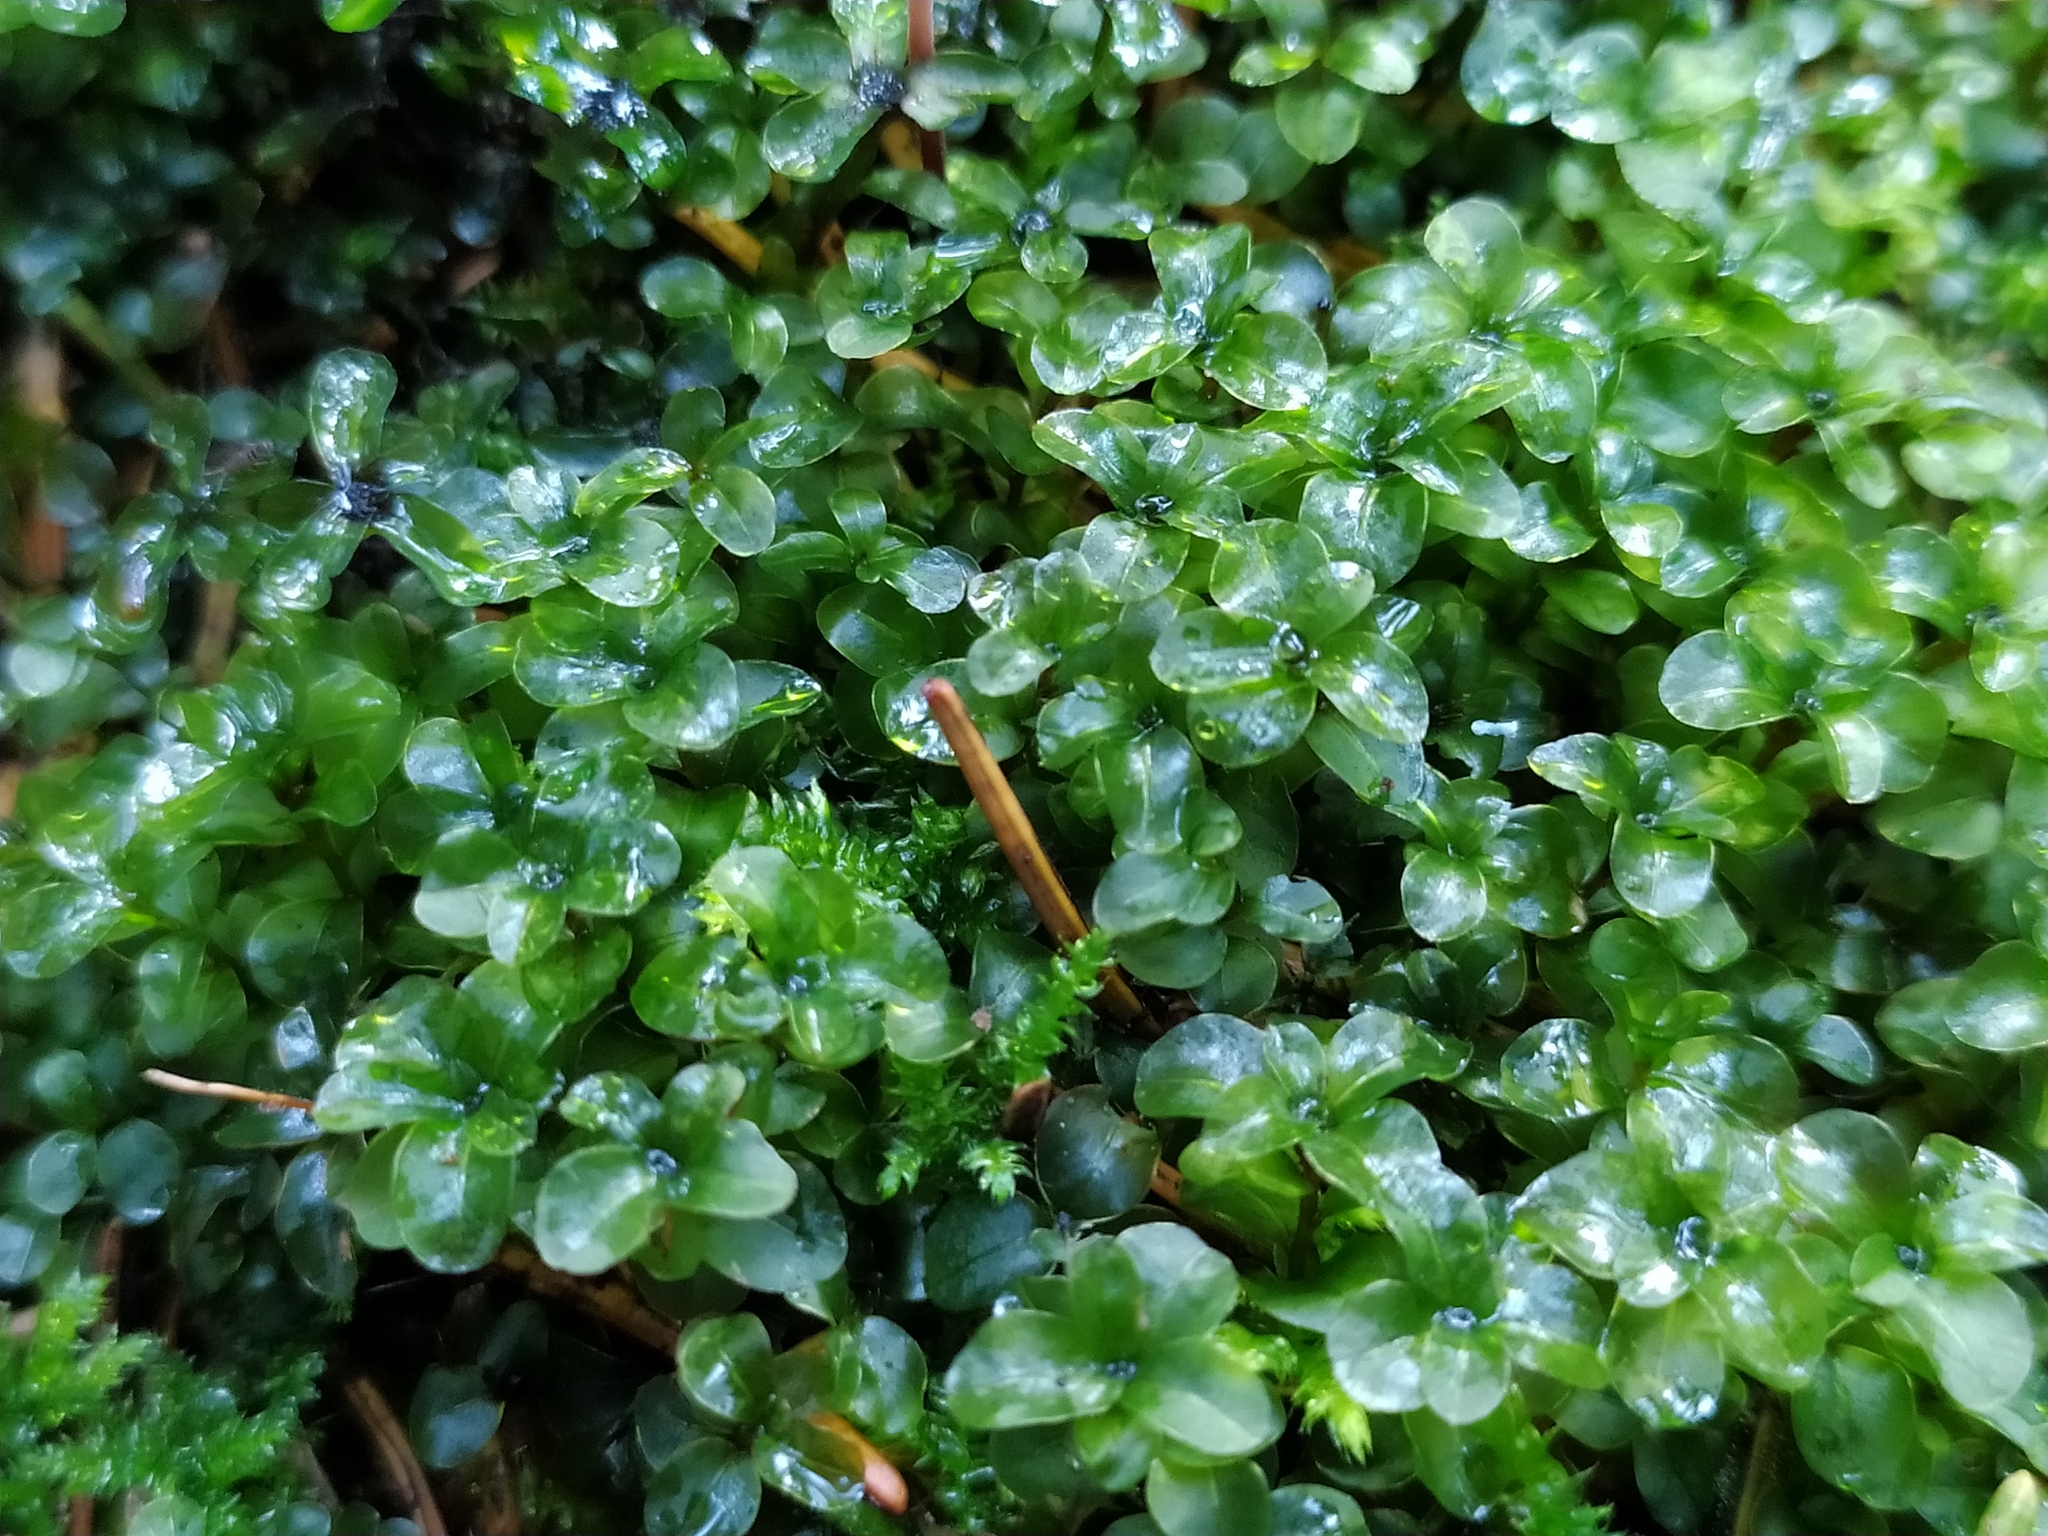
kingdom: Plantae
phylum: Bryophyta
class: Bryopsida
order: Bryales
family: Mniaceae
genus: Rhizomnium
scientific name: Rhizomnium punctatum
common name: Dotted leafy moss
